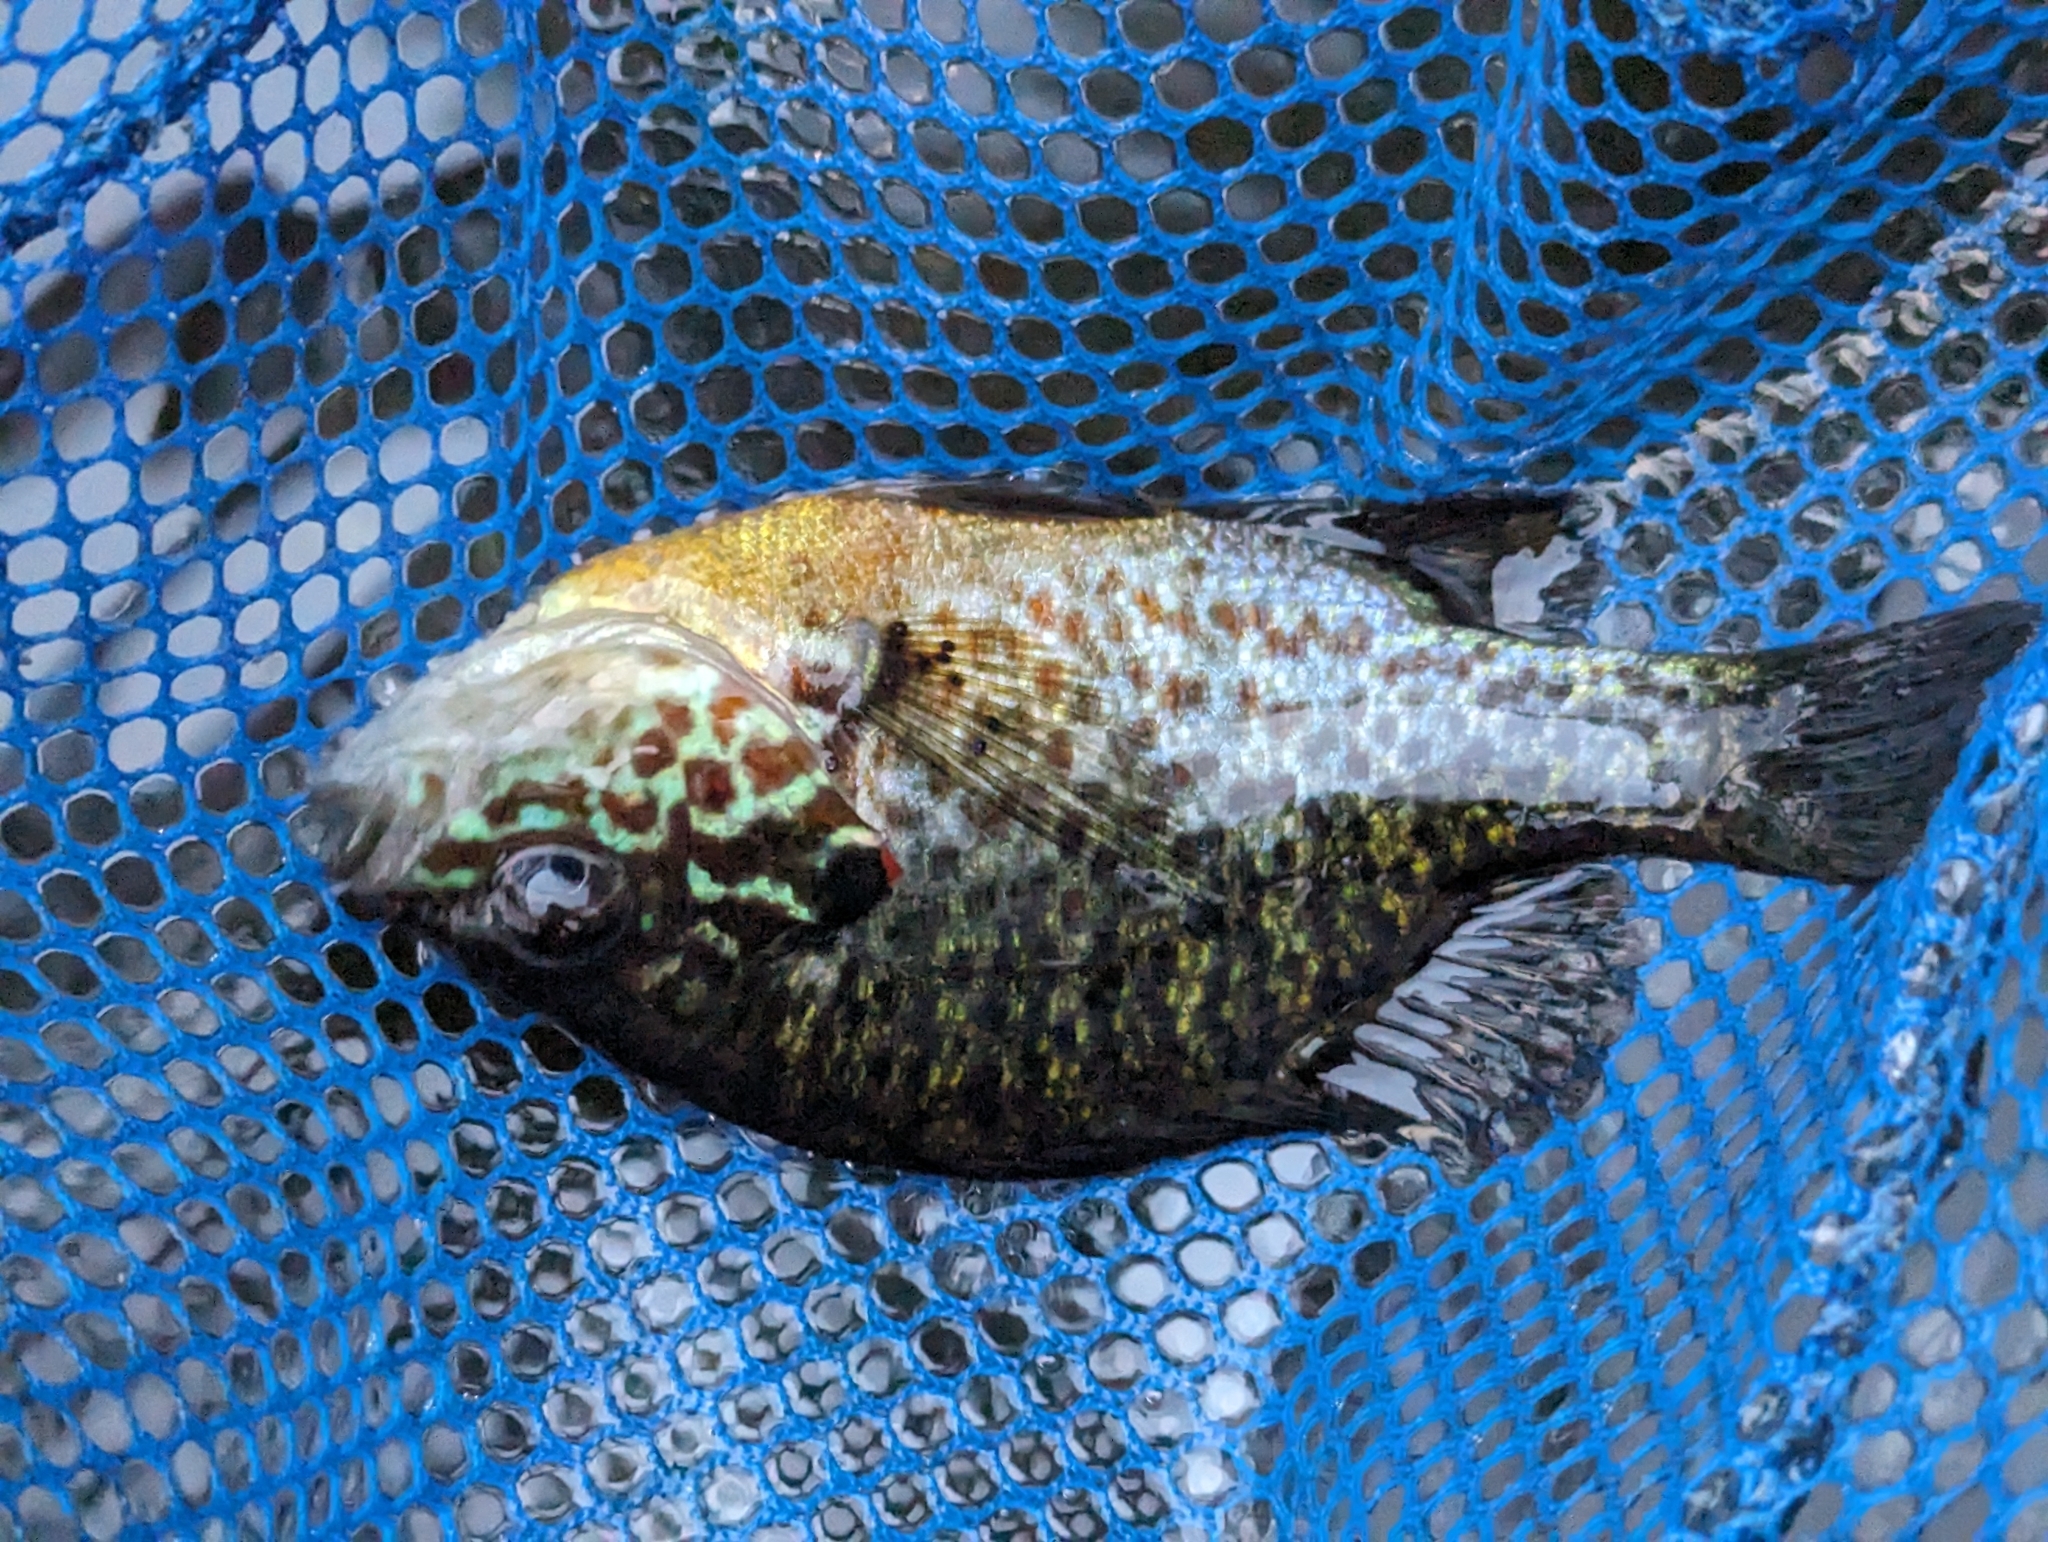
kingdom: Animalia
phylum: Chordata
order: Perciformes
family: Centrarchidae
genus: Lepomis
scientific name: Lepomis gibbosus
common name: Pumpkinseed
